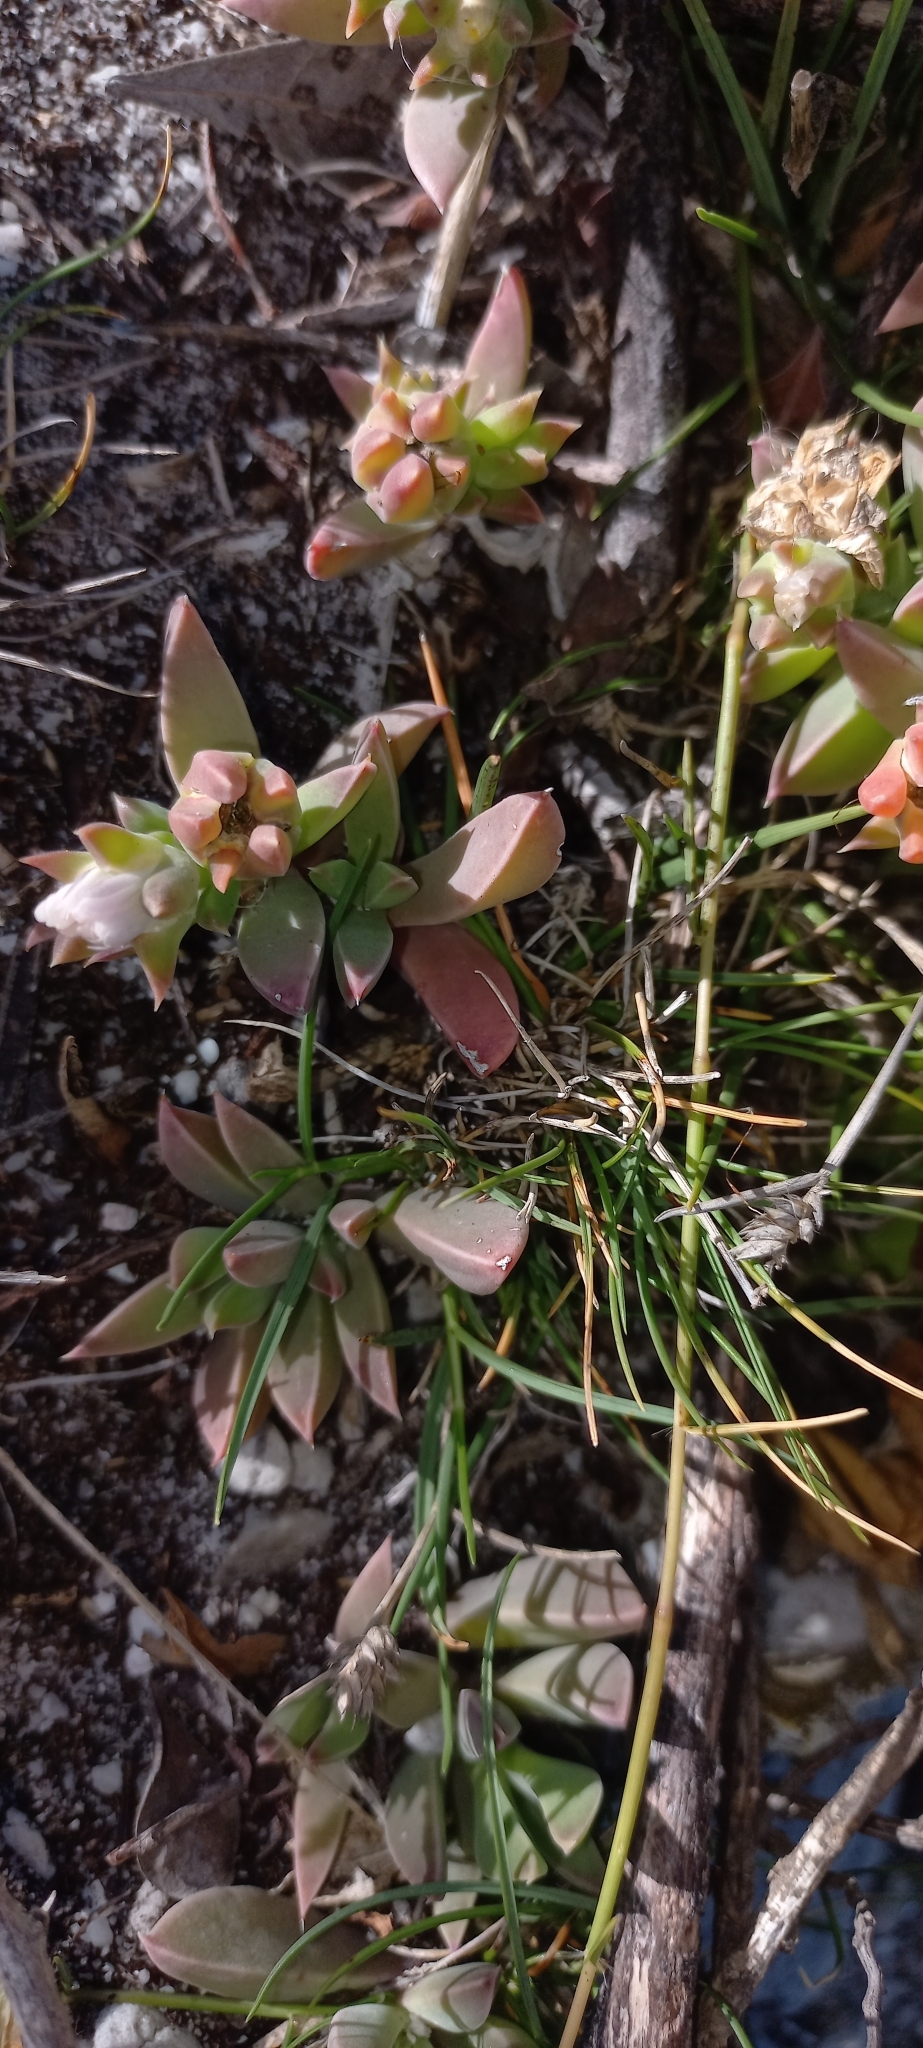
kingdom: Plantae
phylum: Tracheophyta
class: Magnoliopsida
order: Caryophyllales
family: Aizoaceae
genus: Delosperma
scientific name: Delosperma guthriei
